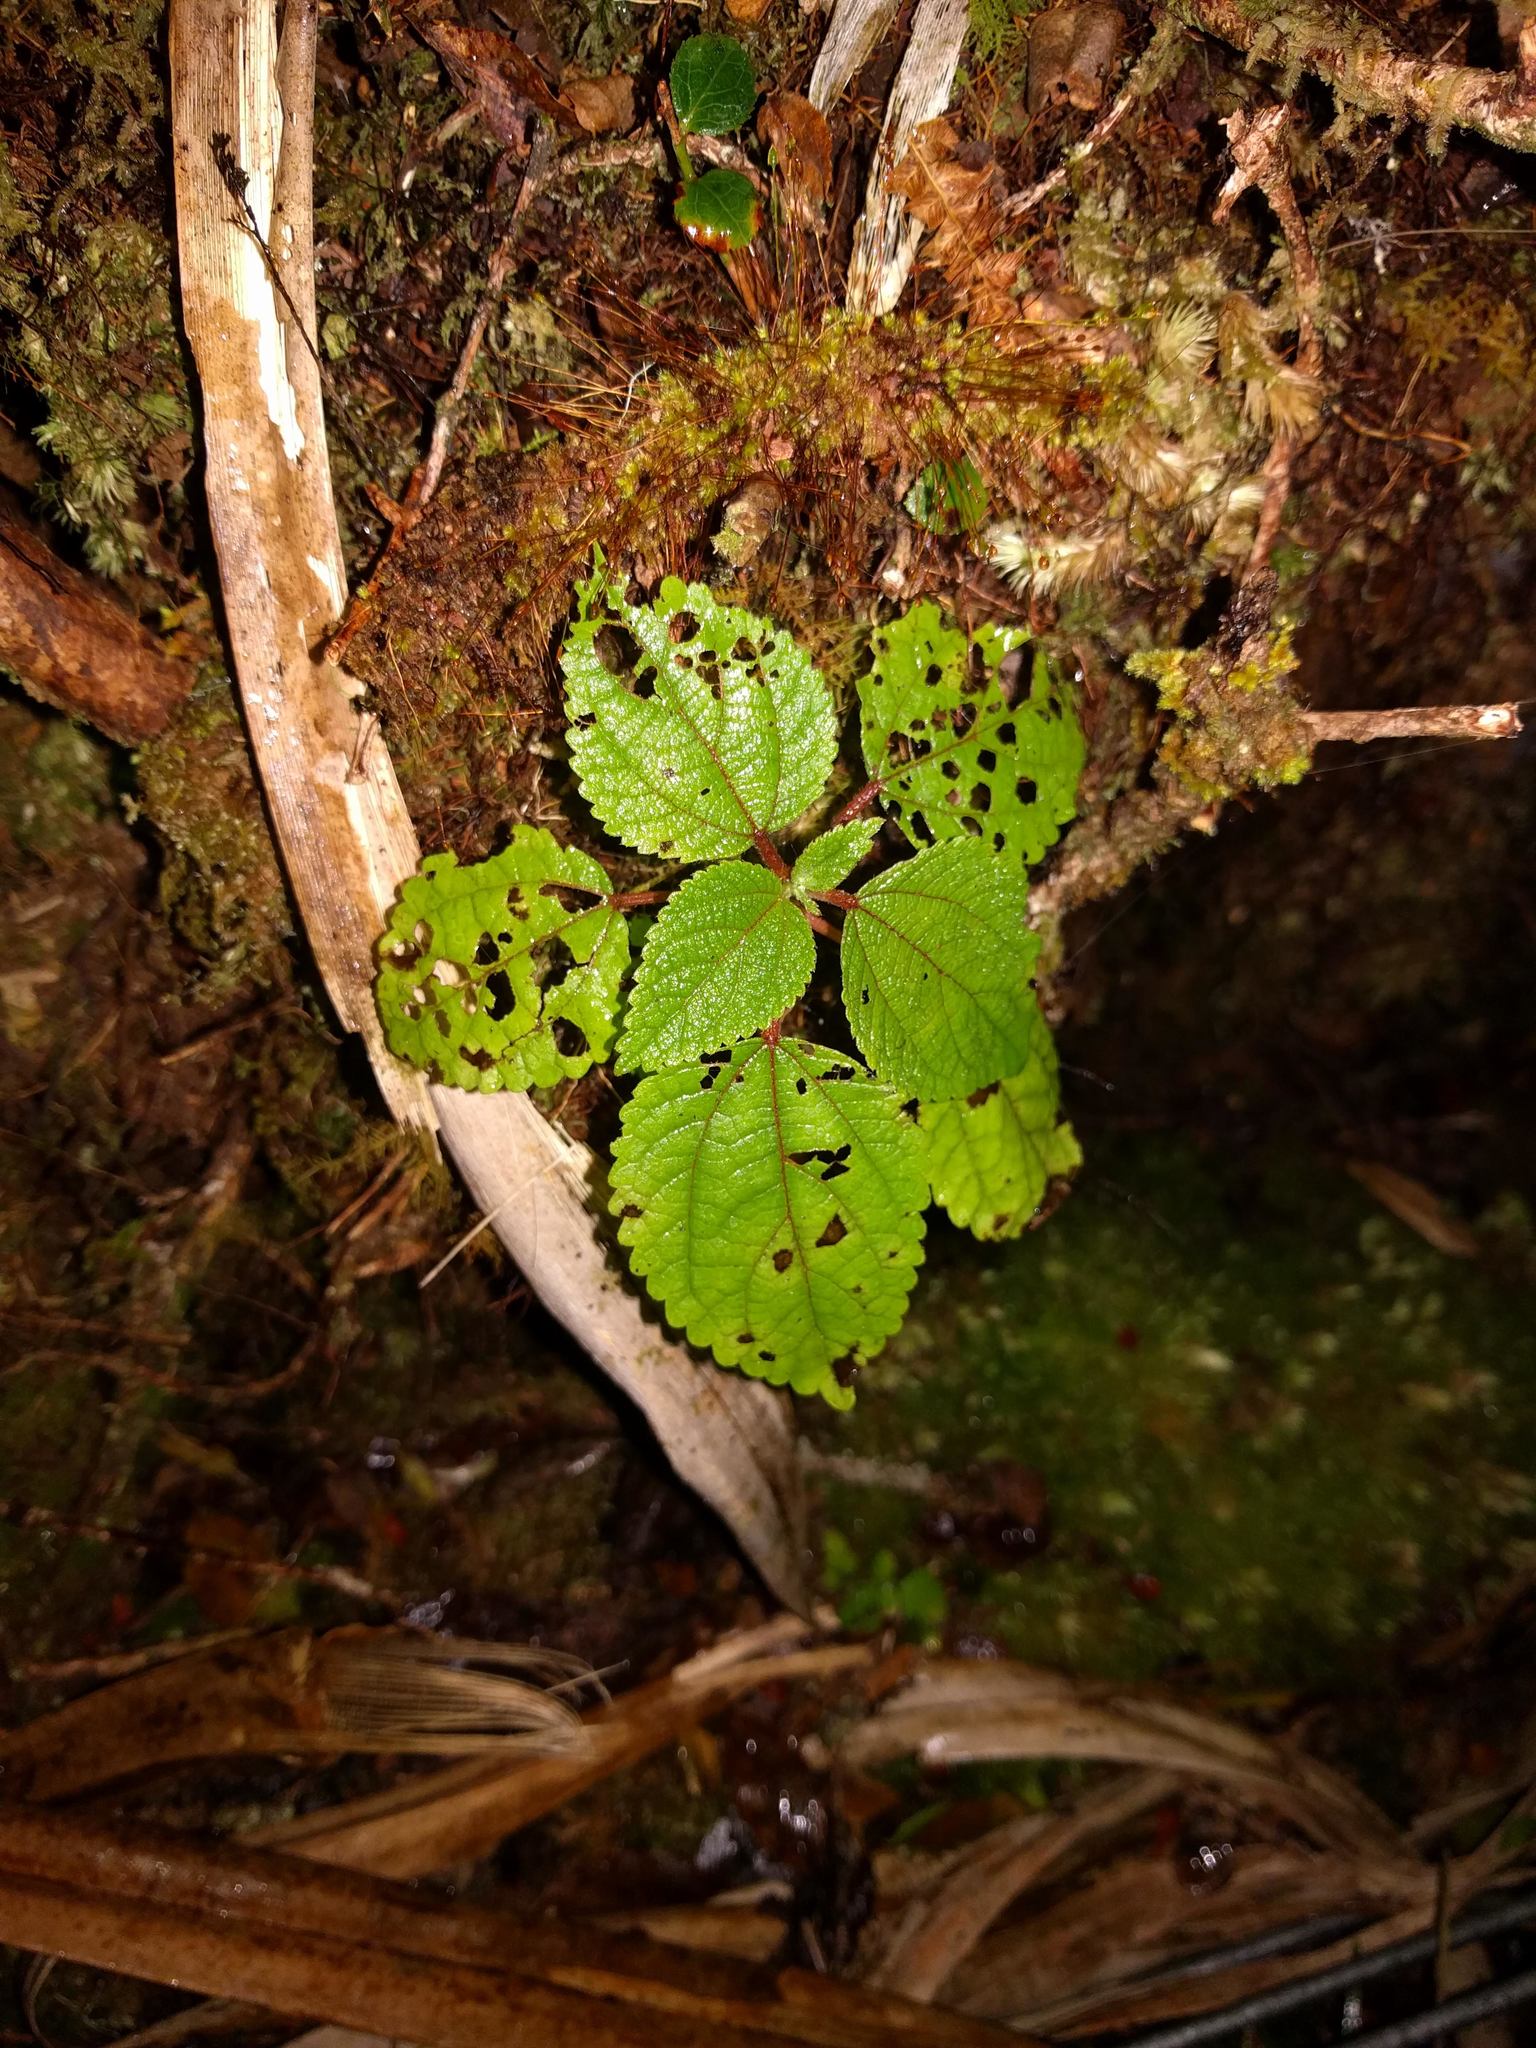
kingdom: Plantae
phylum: Tracheophyta
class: Magnoliopsida
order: Rosales
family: Urticaceae
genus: Pipturus
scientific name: Pipturus albidus
